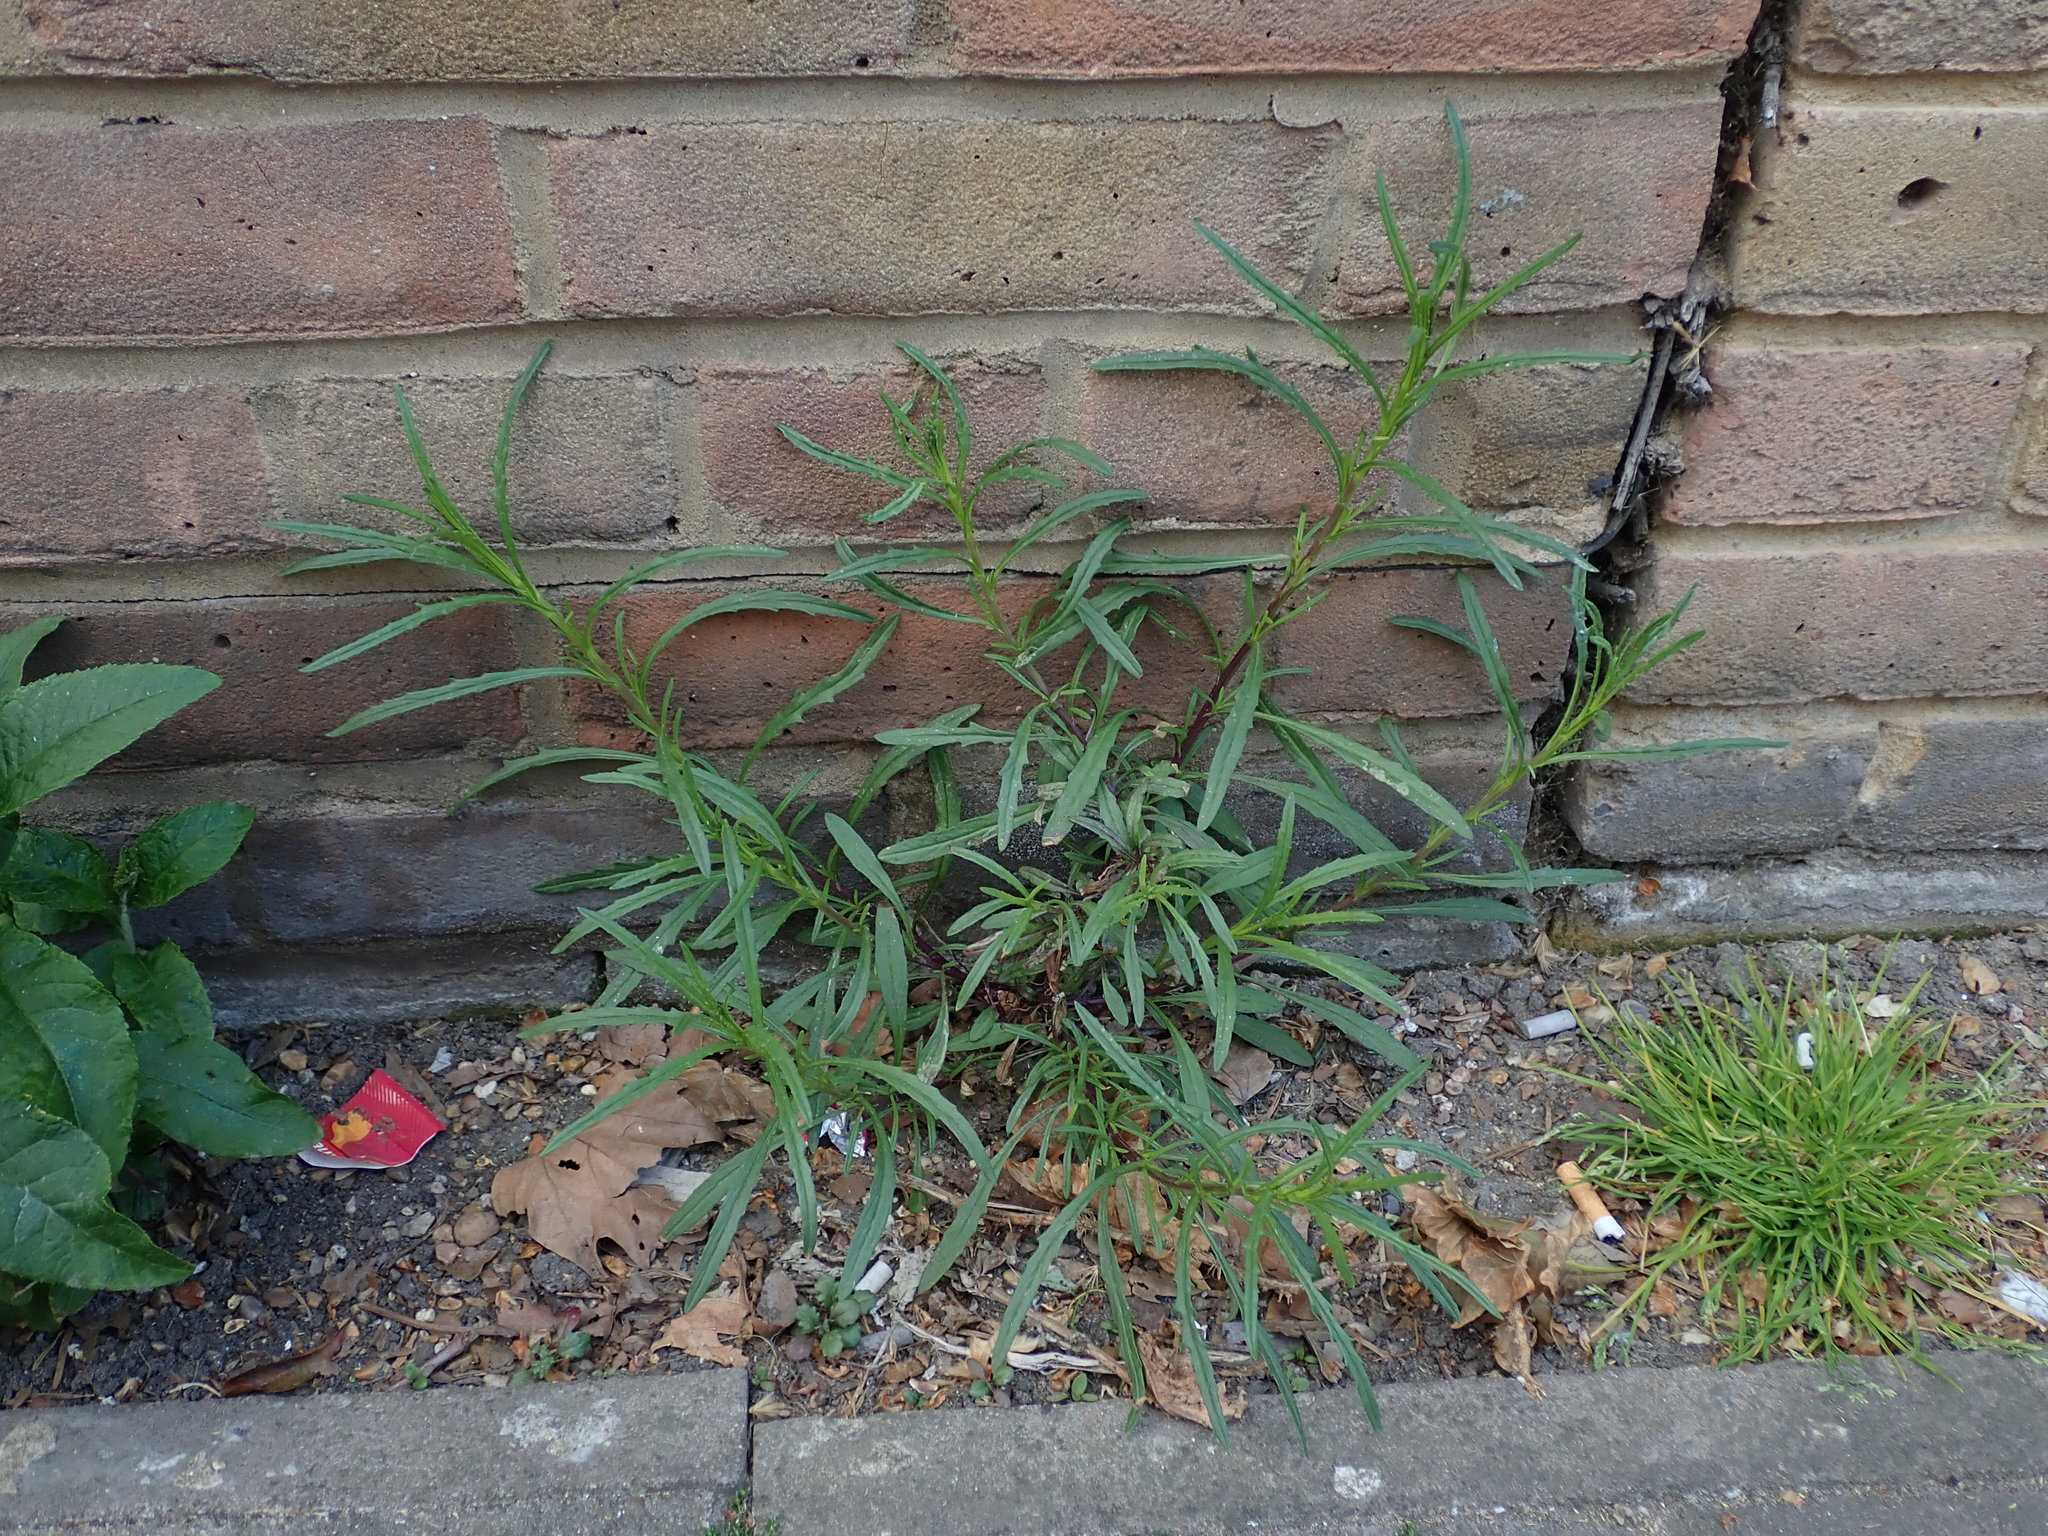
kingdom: Plantae
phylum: Tracheophyta
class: Magnoliopsida
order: Asterales
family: Asteraceae
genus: Senecio
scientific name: Senecio inaequidens
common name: Narrow-leaved ragwort
